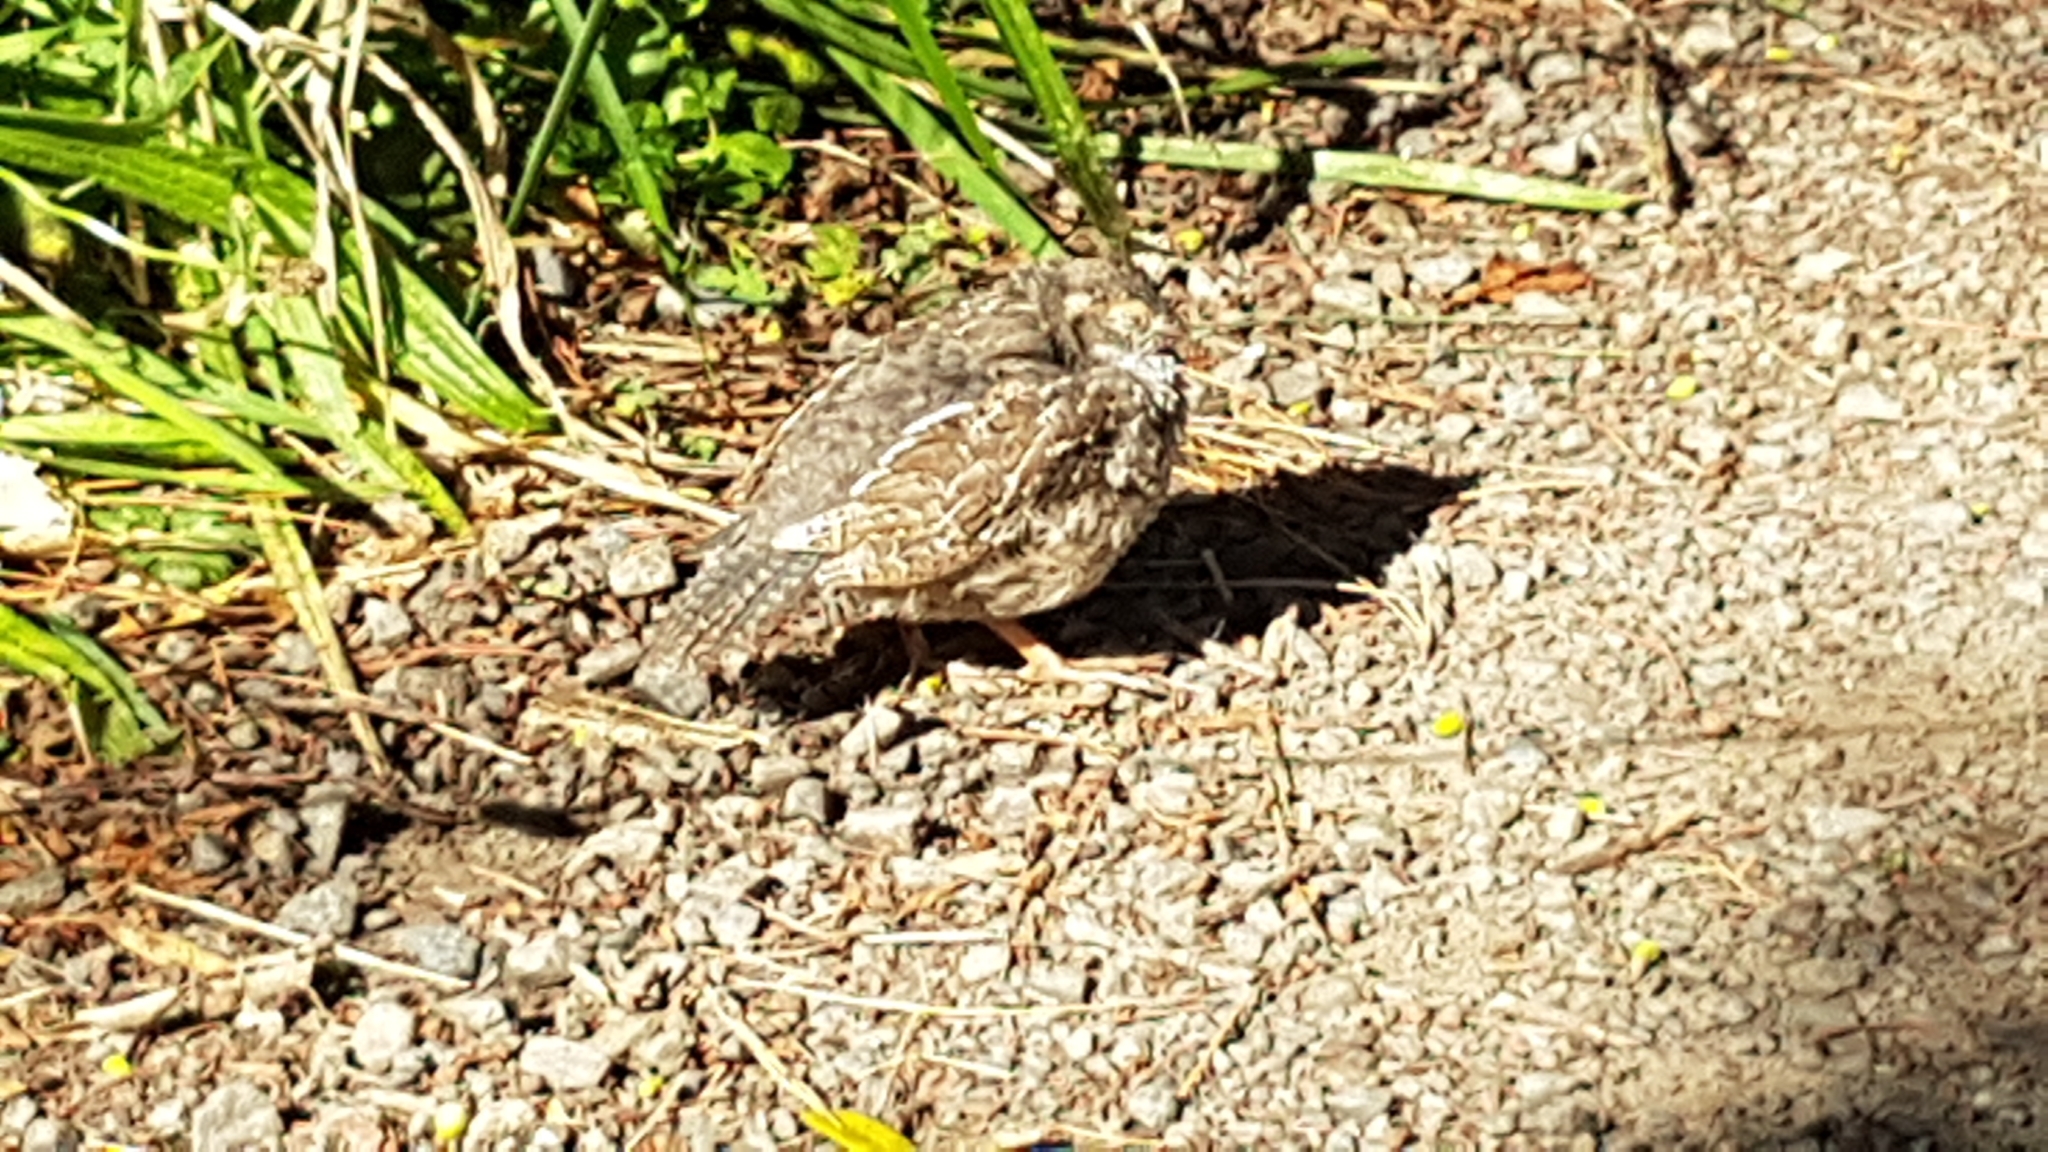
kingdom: Animalia
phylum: Chordata
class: Aves
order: Galliformes
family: Odontophoridae
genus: Callipepla
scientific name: Callipepla californica
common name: California quail
